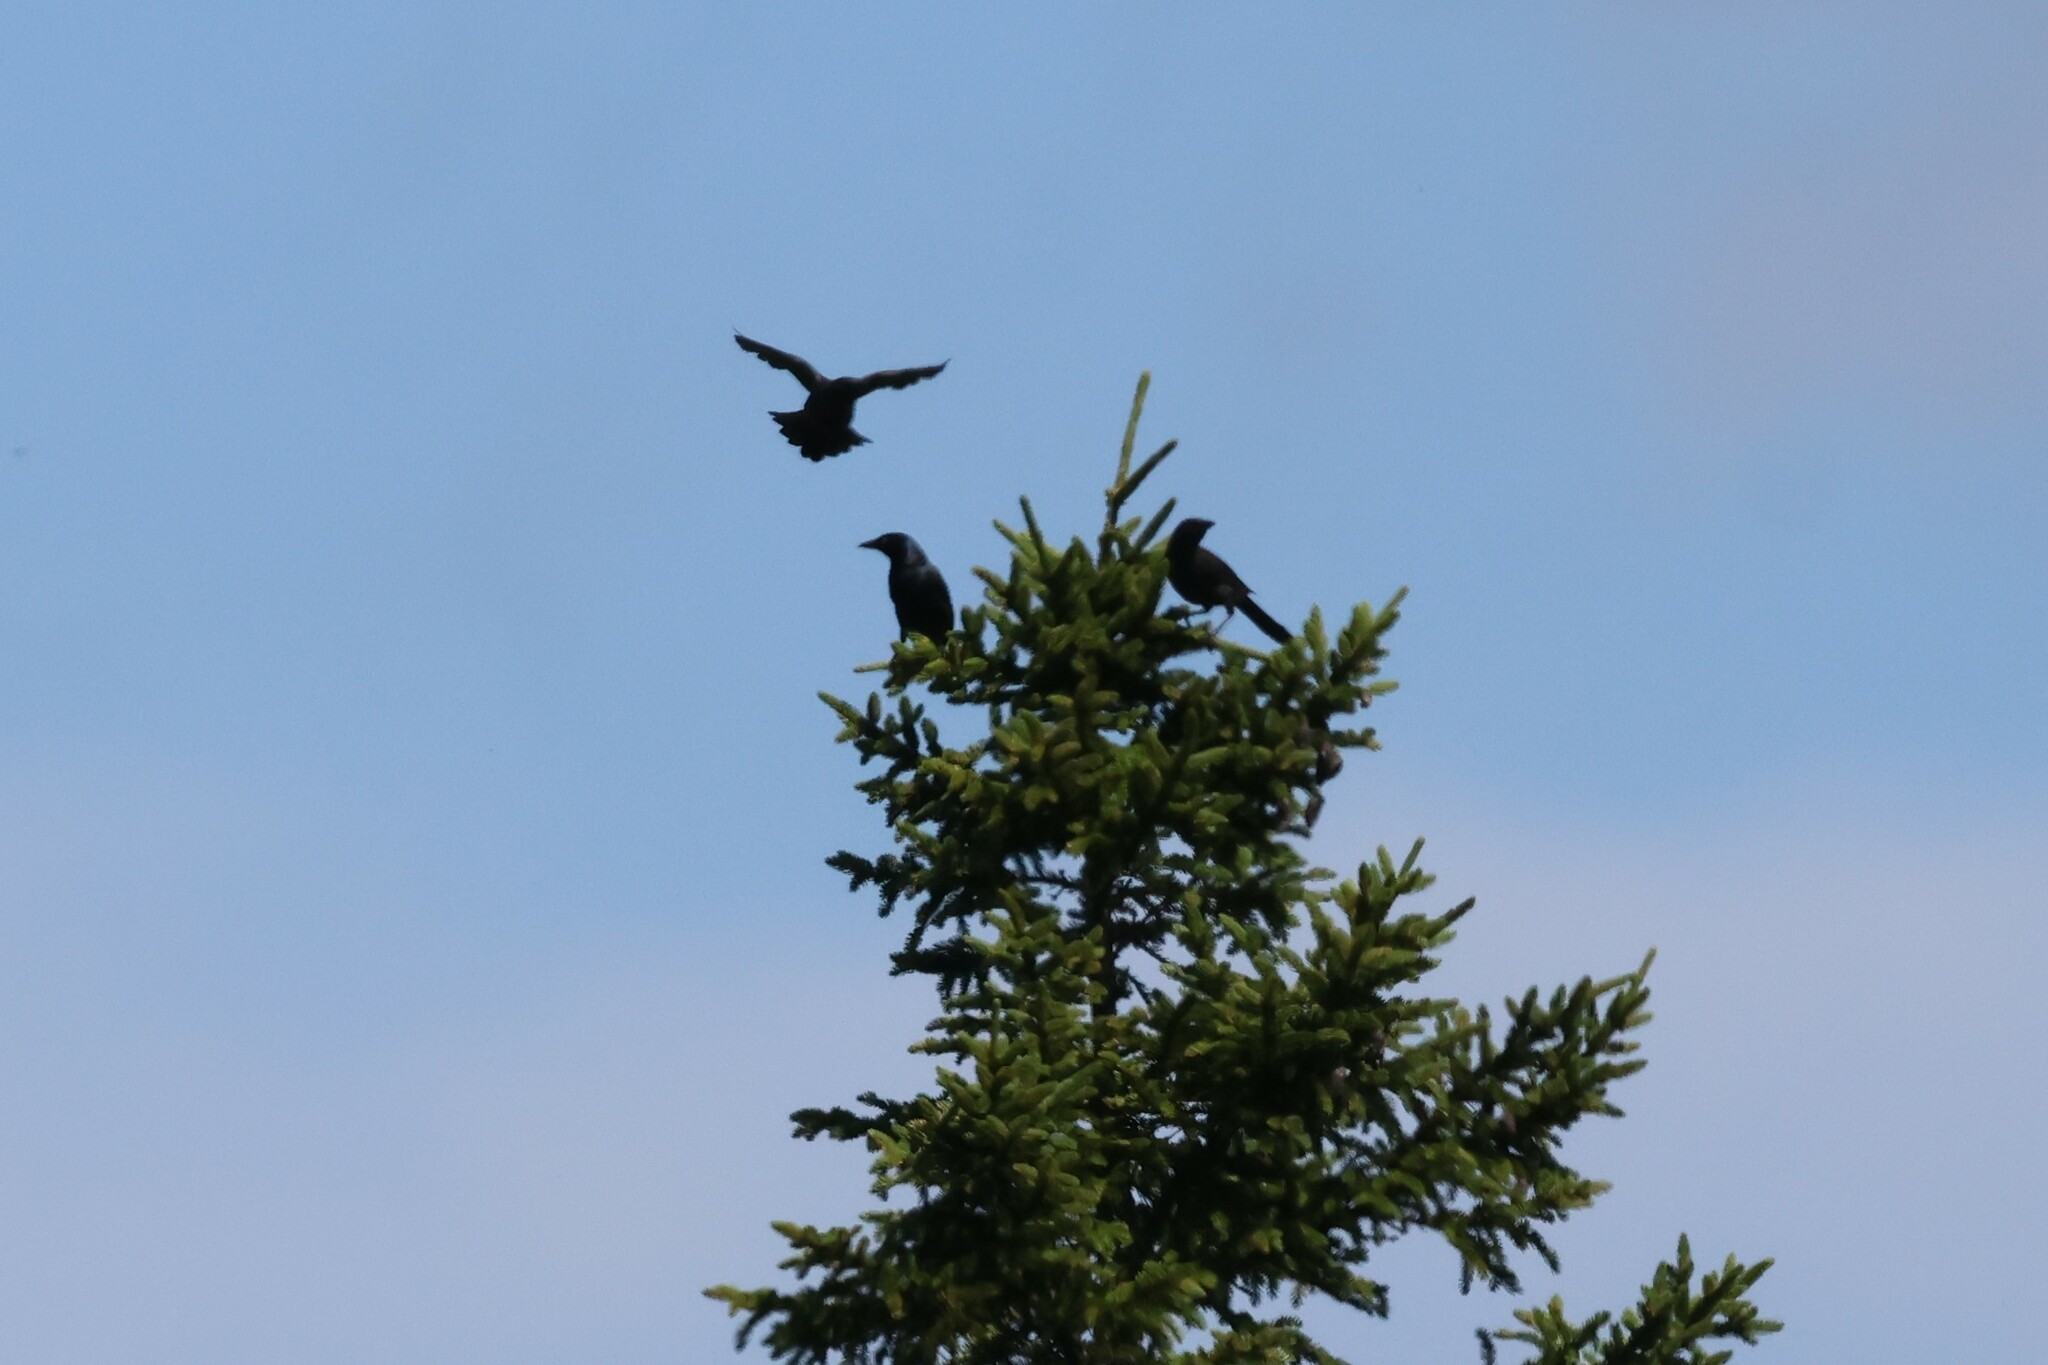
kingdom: Animalia
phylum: Chordata
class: Aves
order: Passeriformes
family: Icteridae
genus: Quiscalus
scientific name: Quiscalus quiscula
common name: Common grackle
